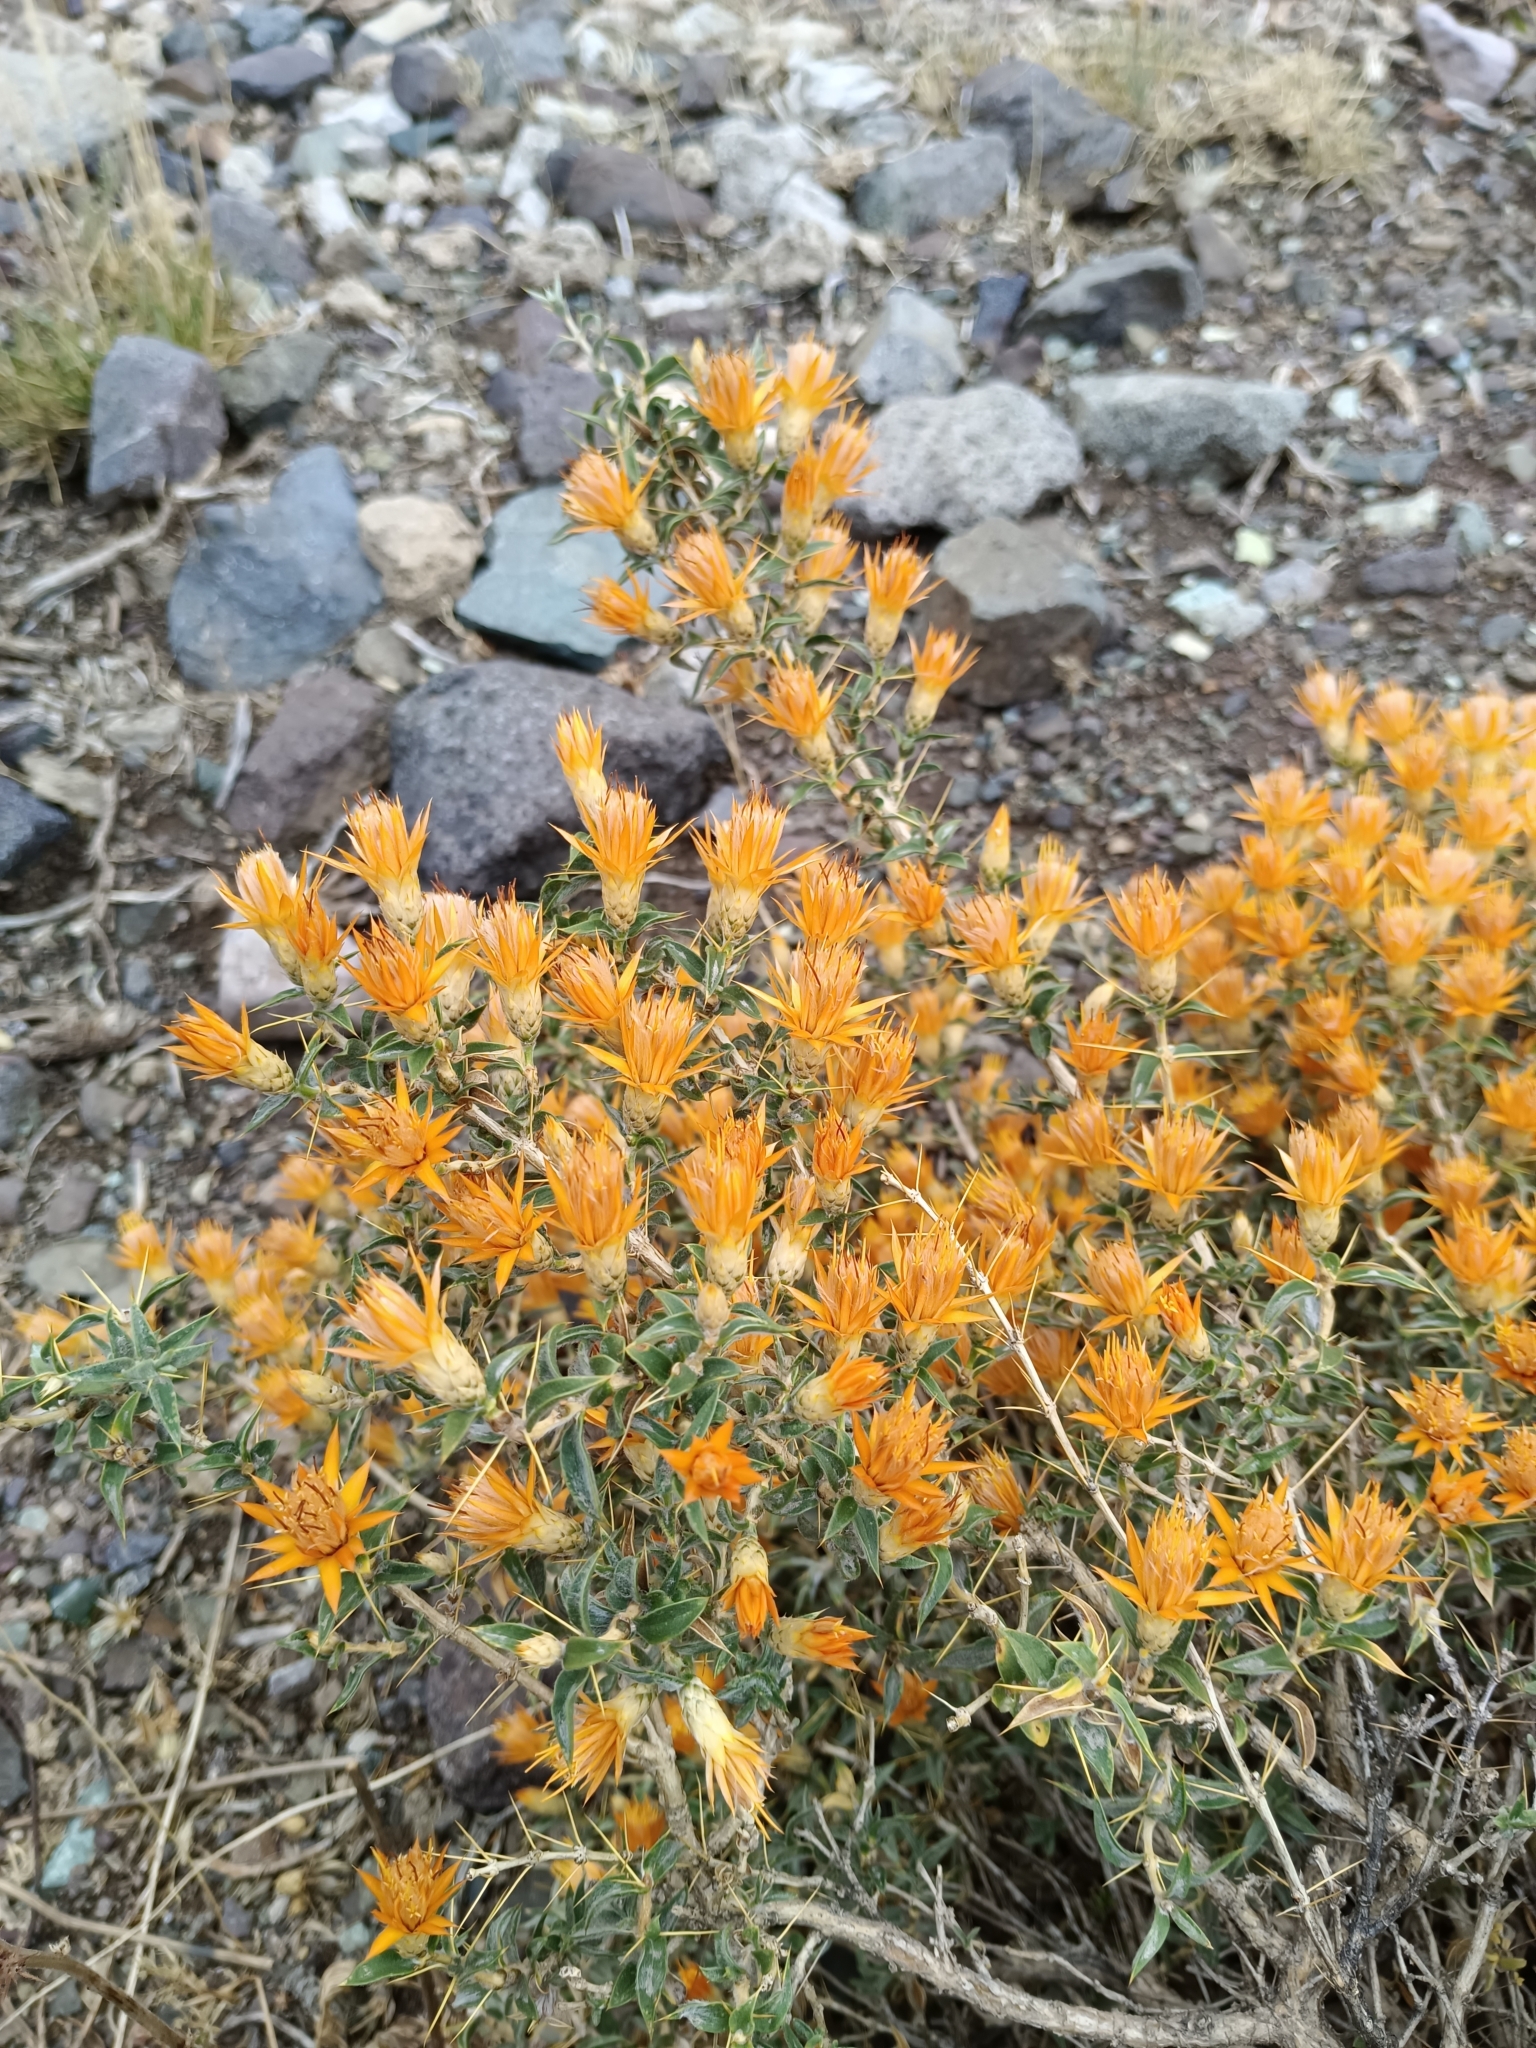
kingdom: Plantae
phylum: Tracheophyta
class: Magnoliopsida
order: Asterales
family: Asteraceae
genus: Chuquiraga
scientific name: Chuquiraga oppositifolia
